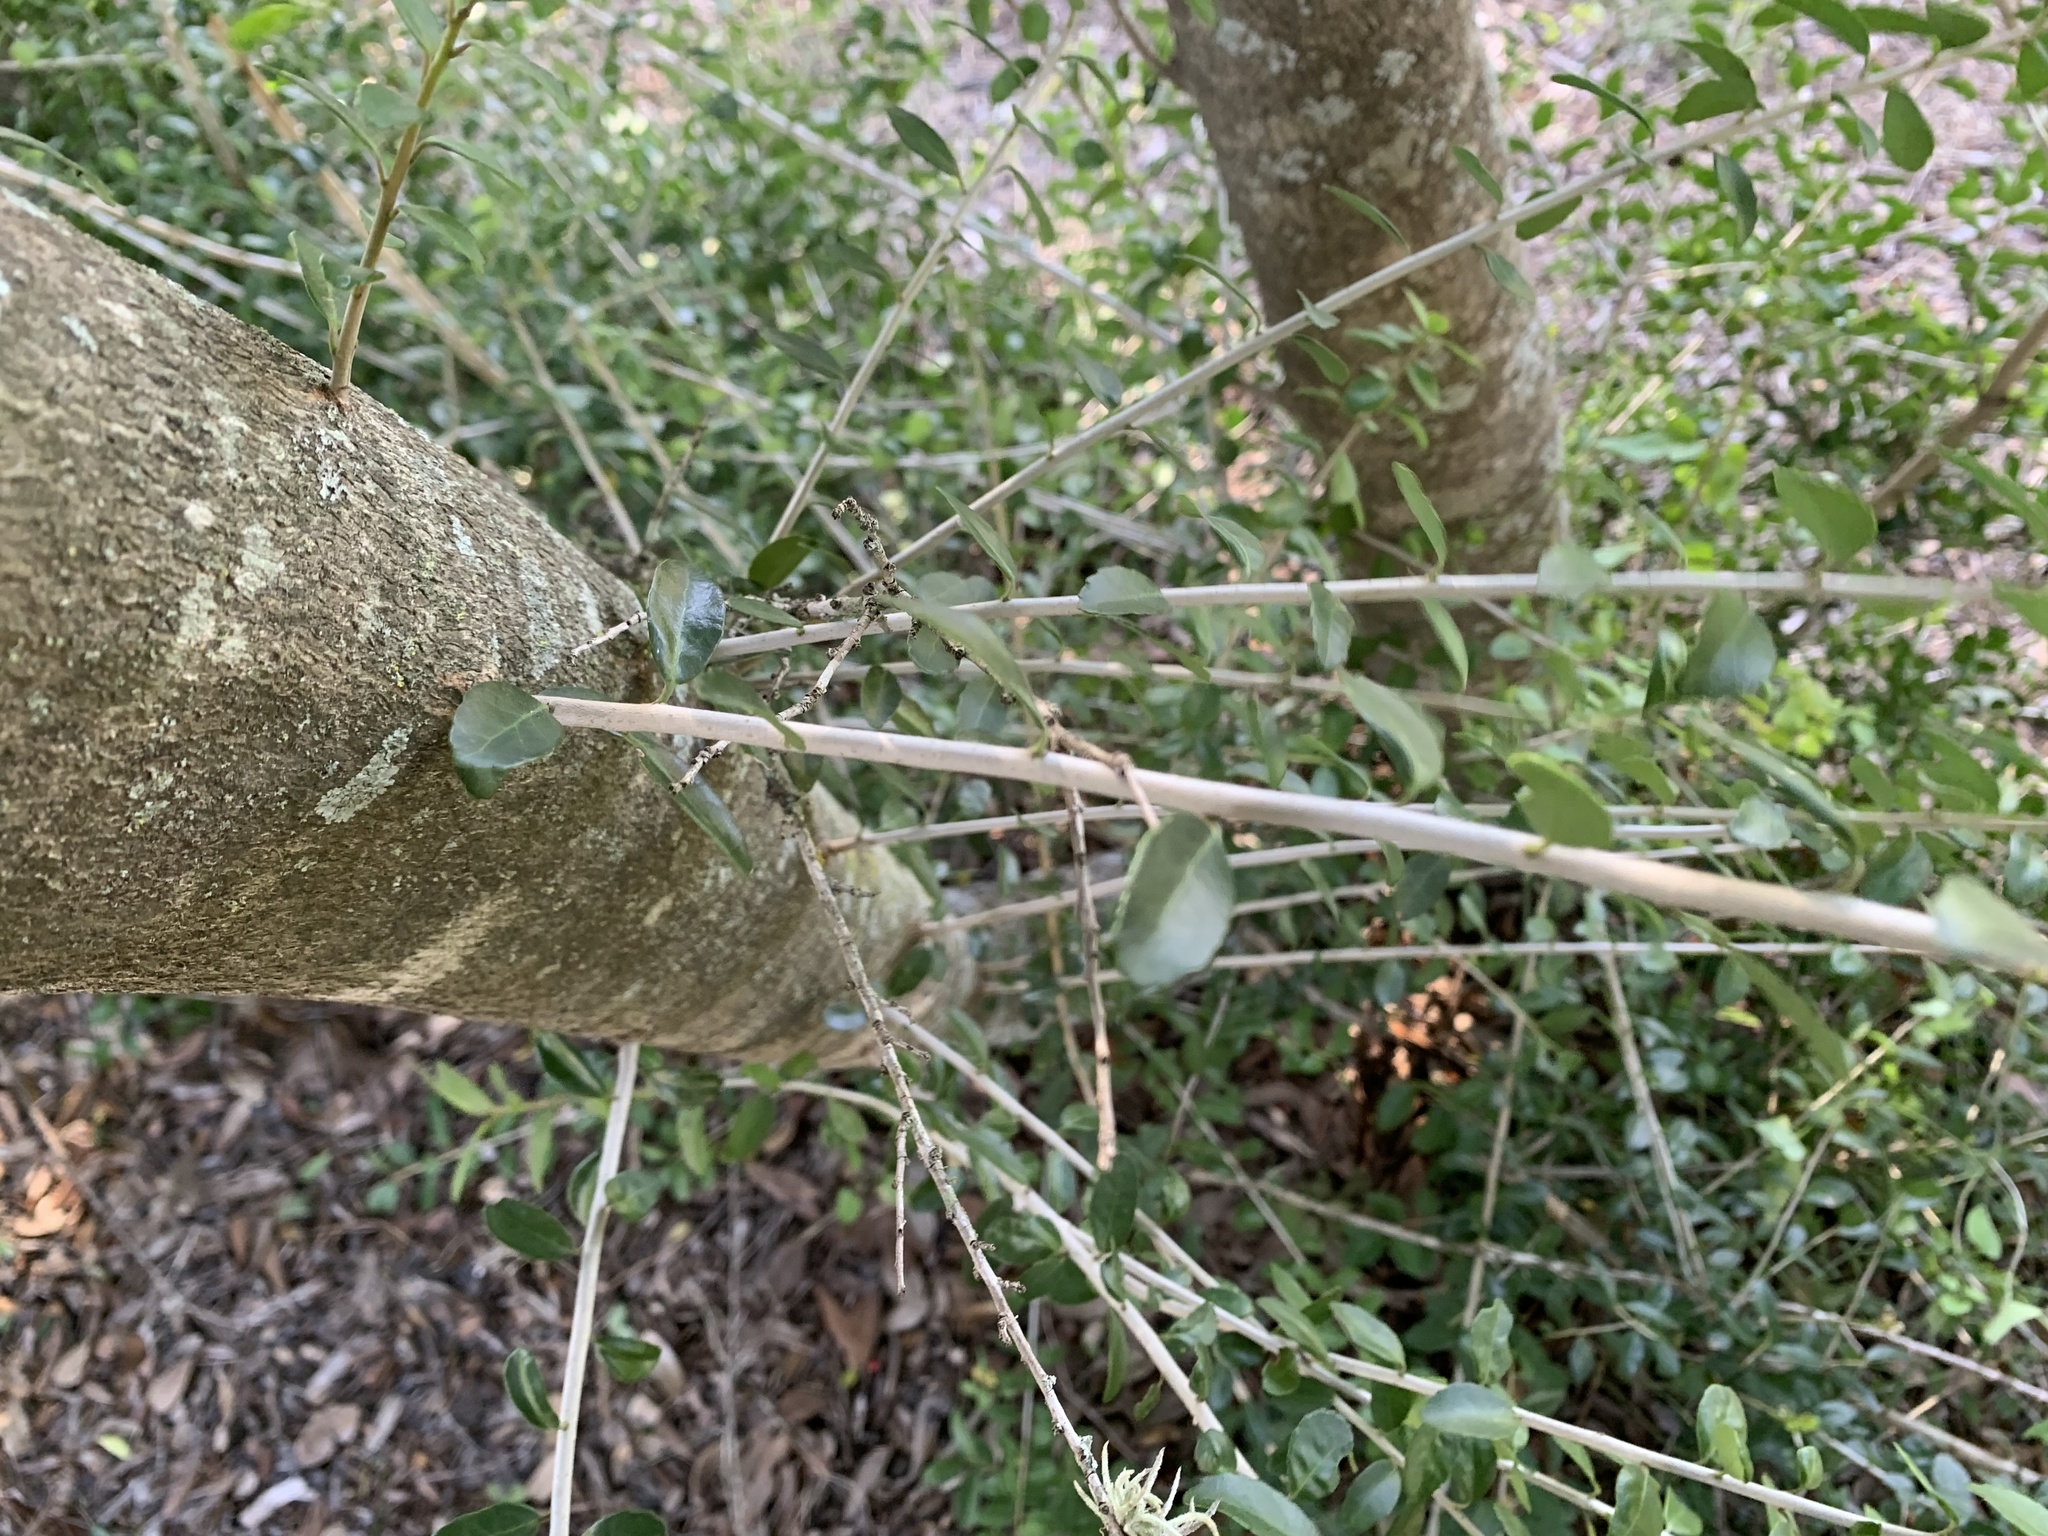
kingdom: Plantae
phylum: Tracheophyta
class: Magnoliopsida
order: Aquifoliales
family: Aquifoliaceae
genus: Ilex
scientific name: Ilex vomitoria
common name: Yaupon holly
